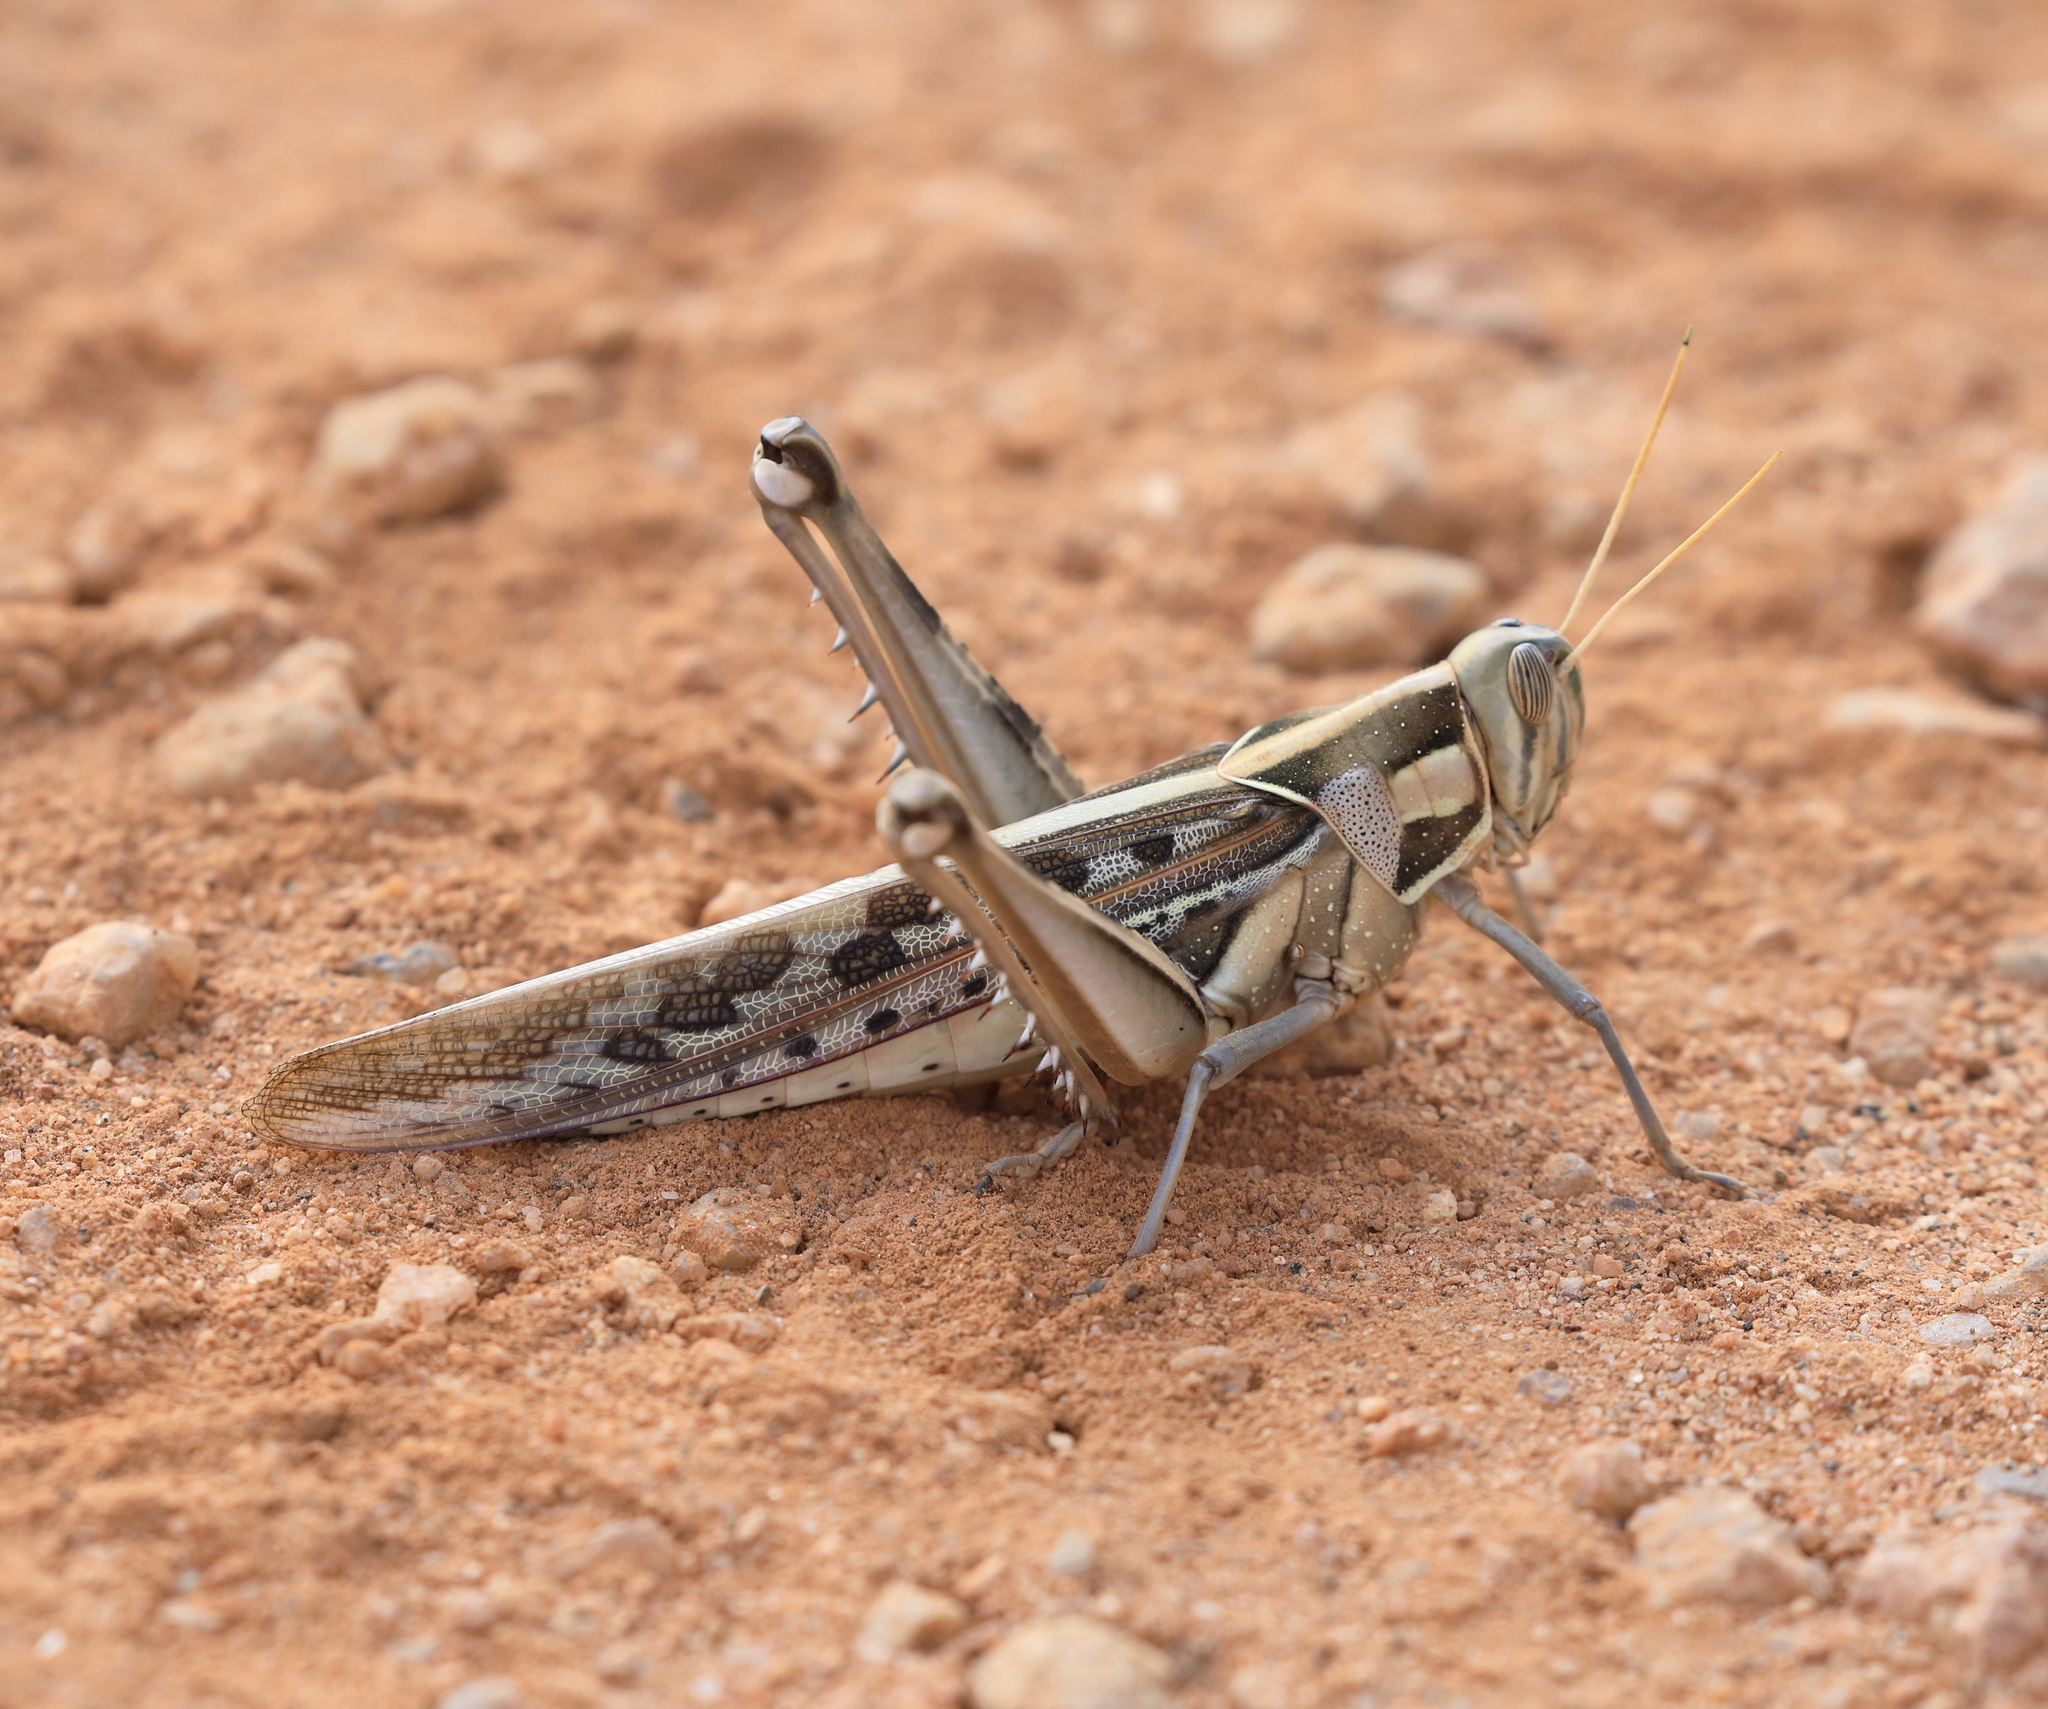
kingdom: Animalia
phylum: Arthropoda
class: Insecta
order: Orthoptera
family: Acrididae
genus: Cyrtacanthacris
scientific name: Cyrtacanthacris tatarica
